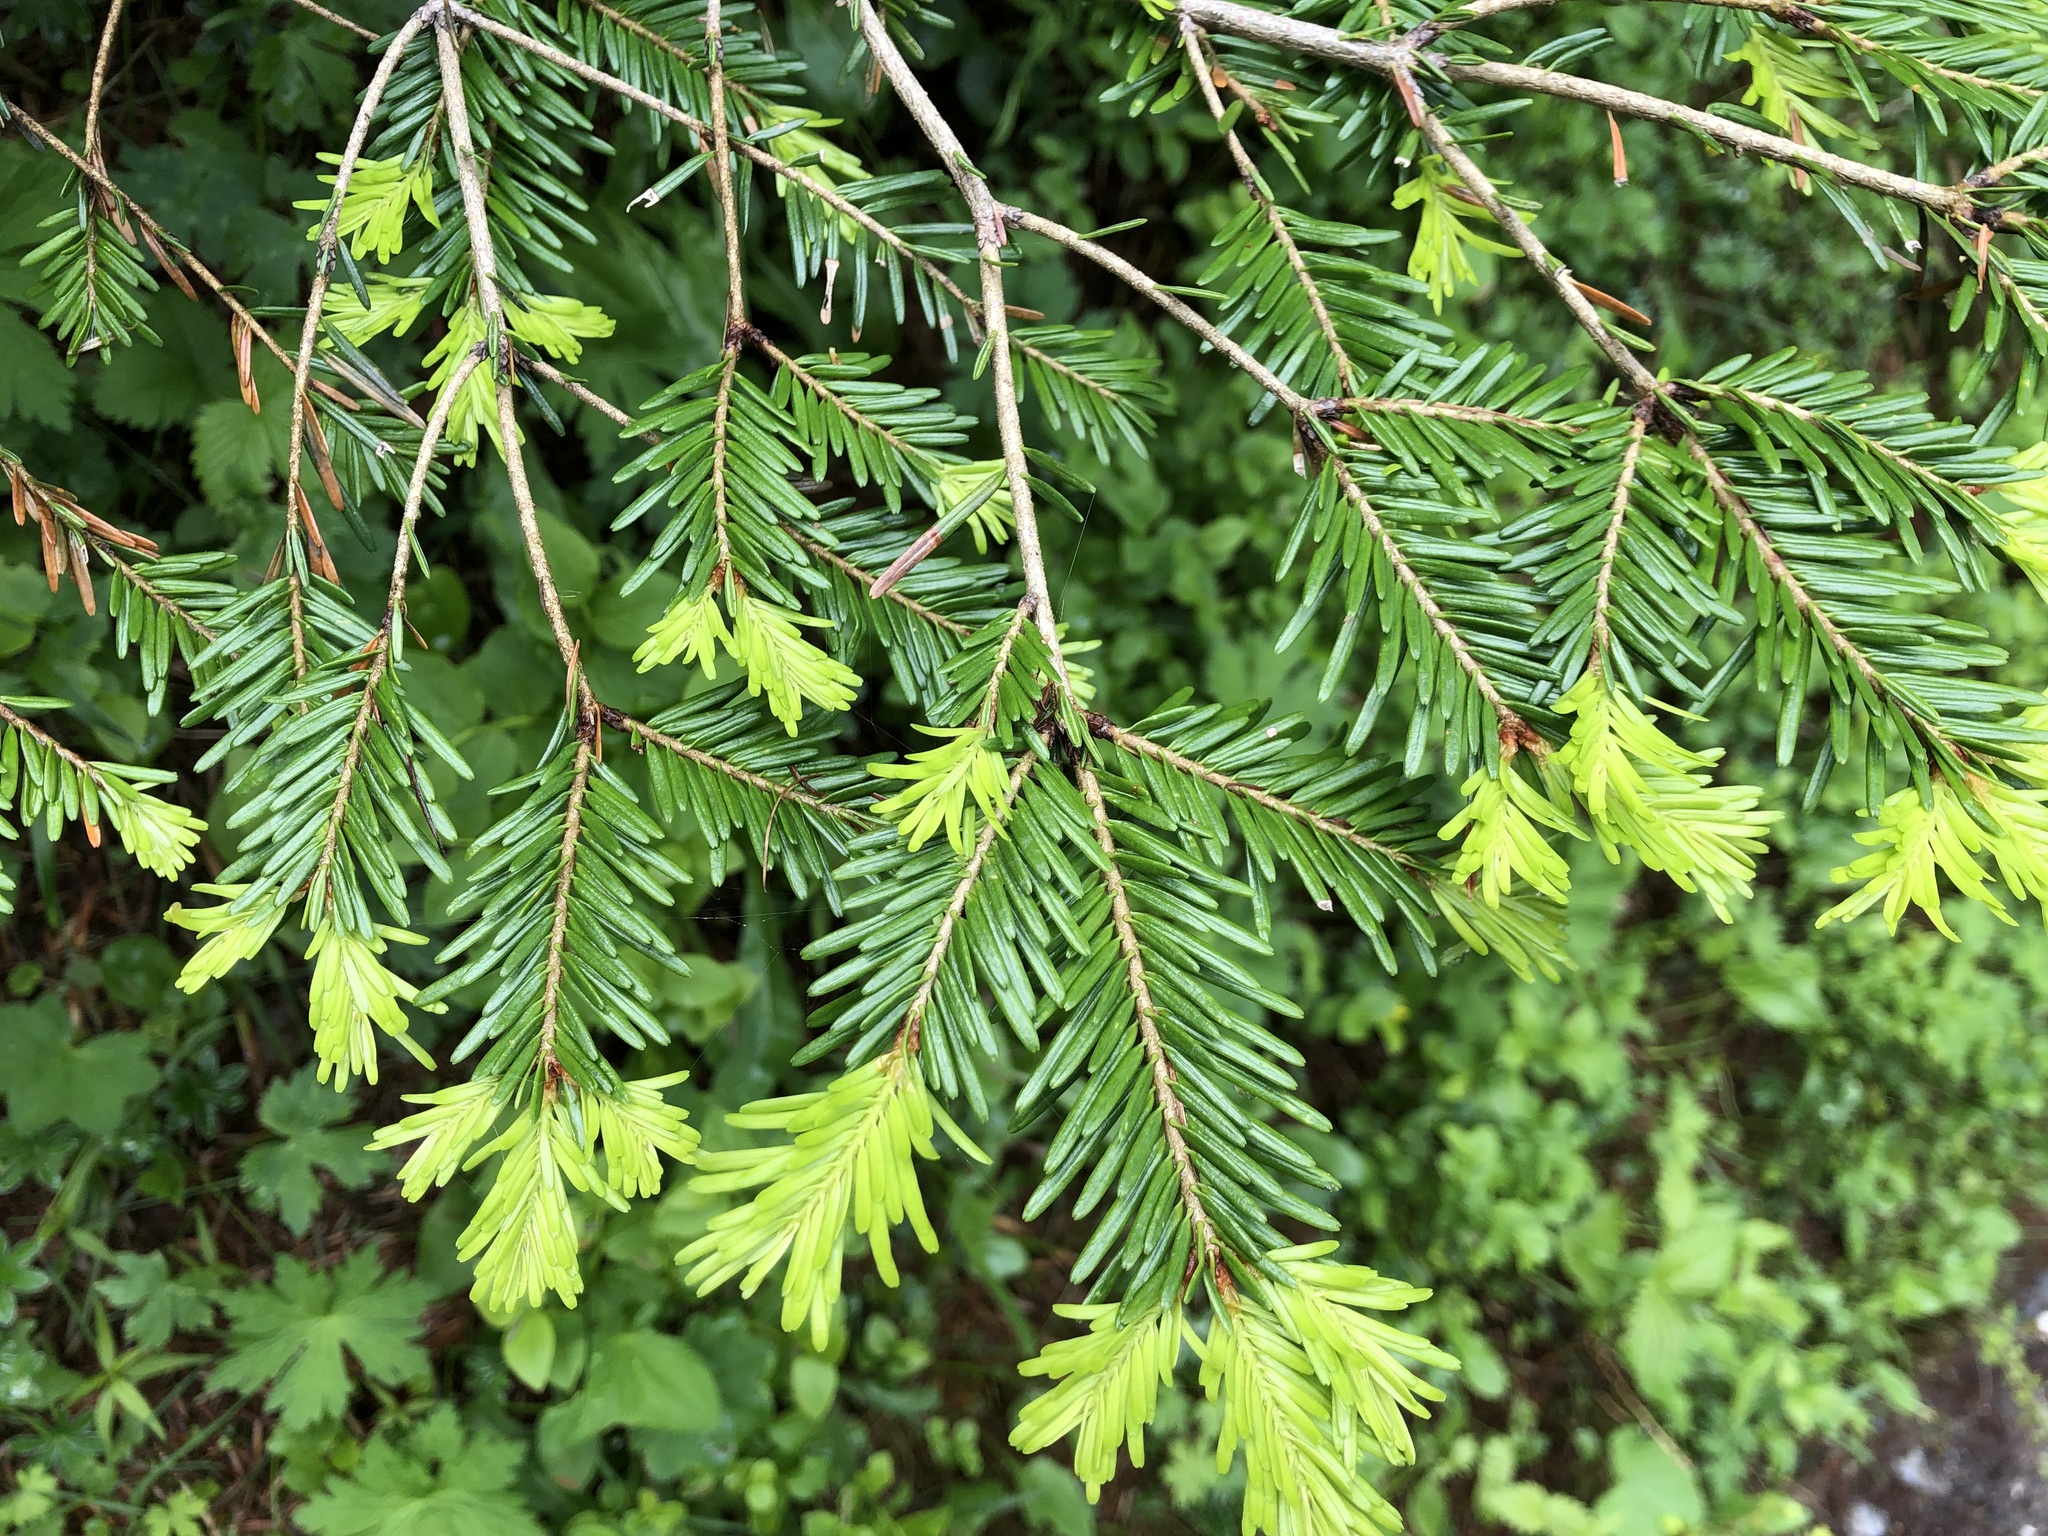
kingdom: Plantae
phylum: Tracheophyta
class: Pinopsida
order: Pinales
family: Pinaceae
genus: Abies
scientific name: Abies alba
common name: Silver fir
